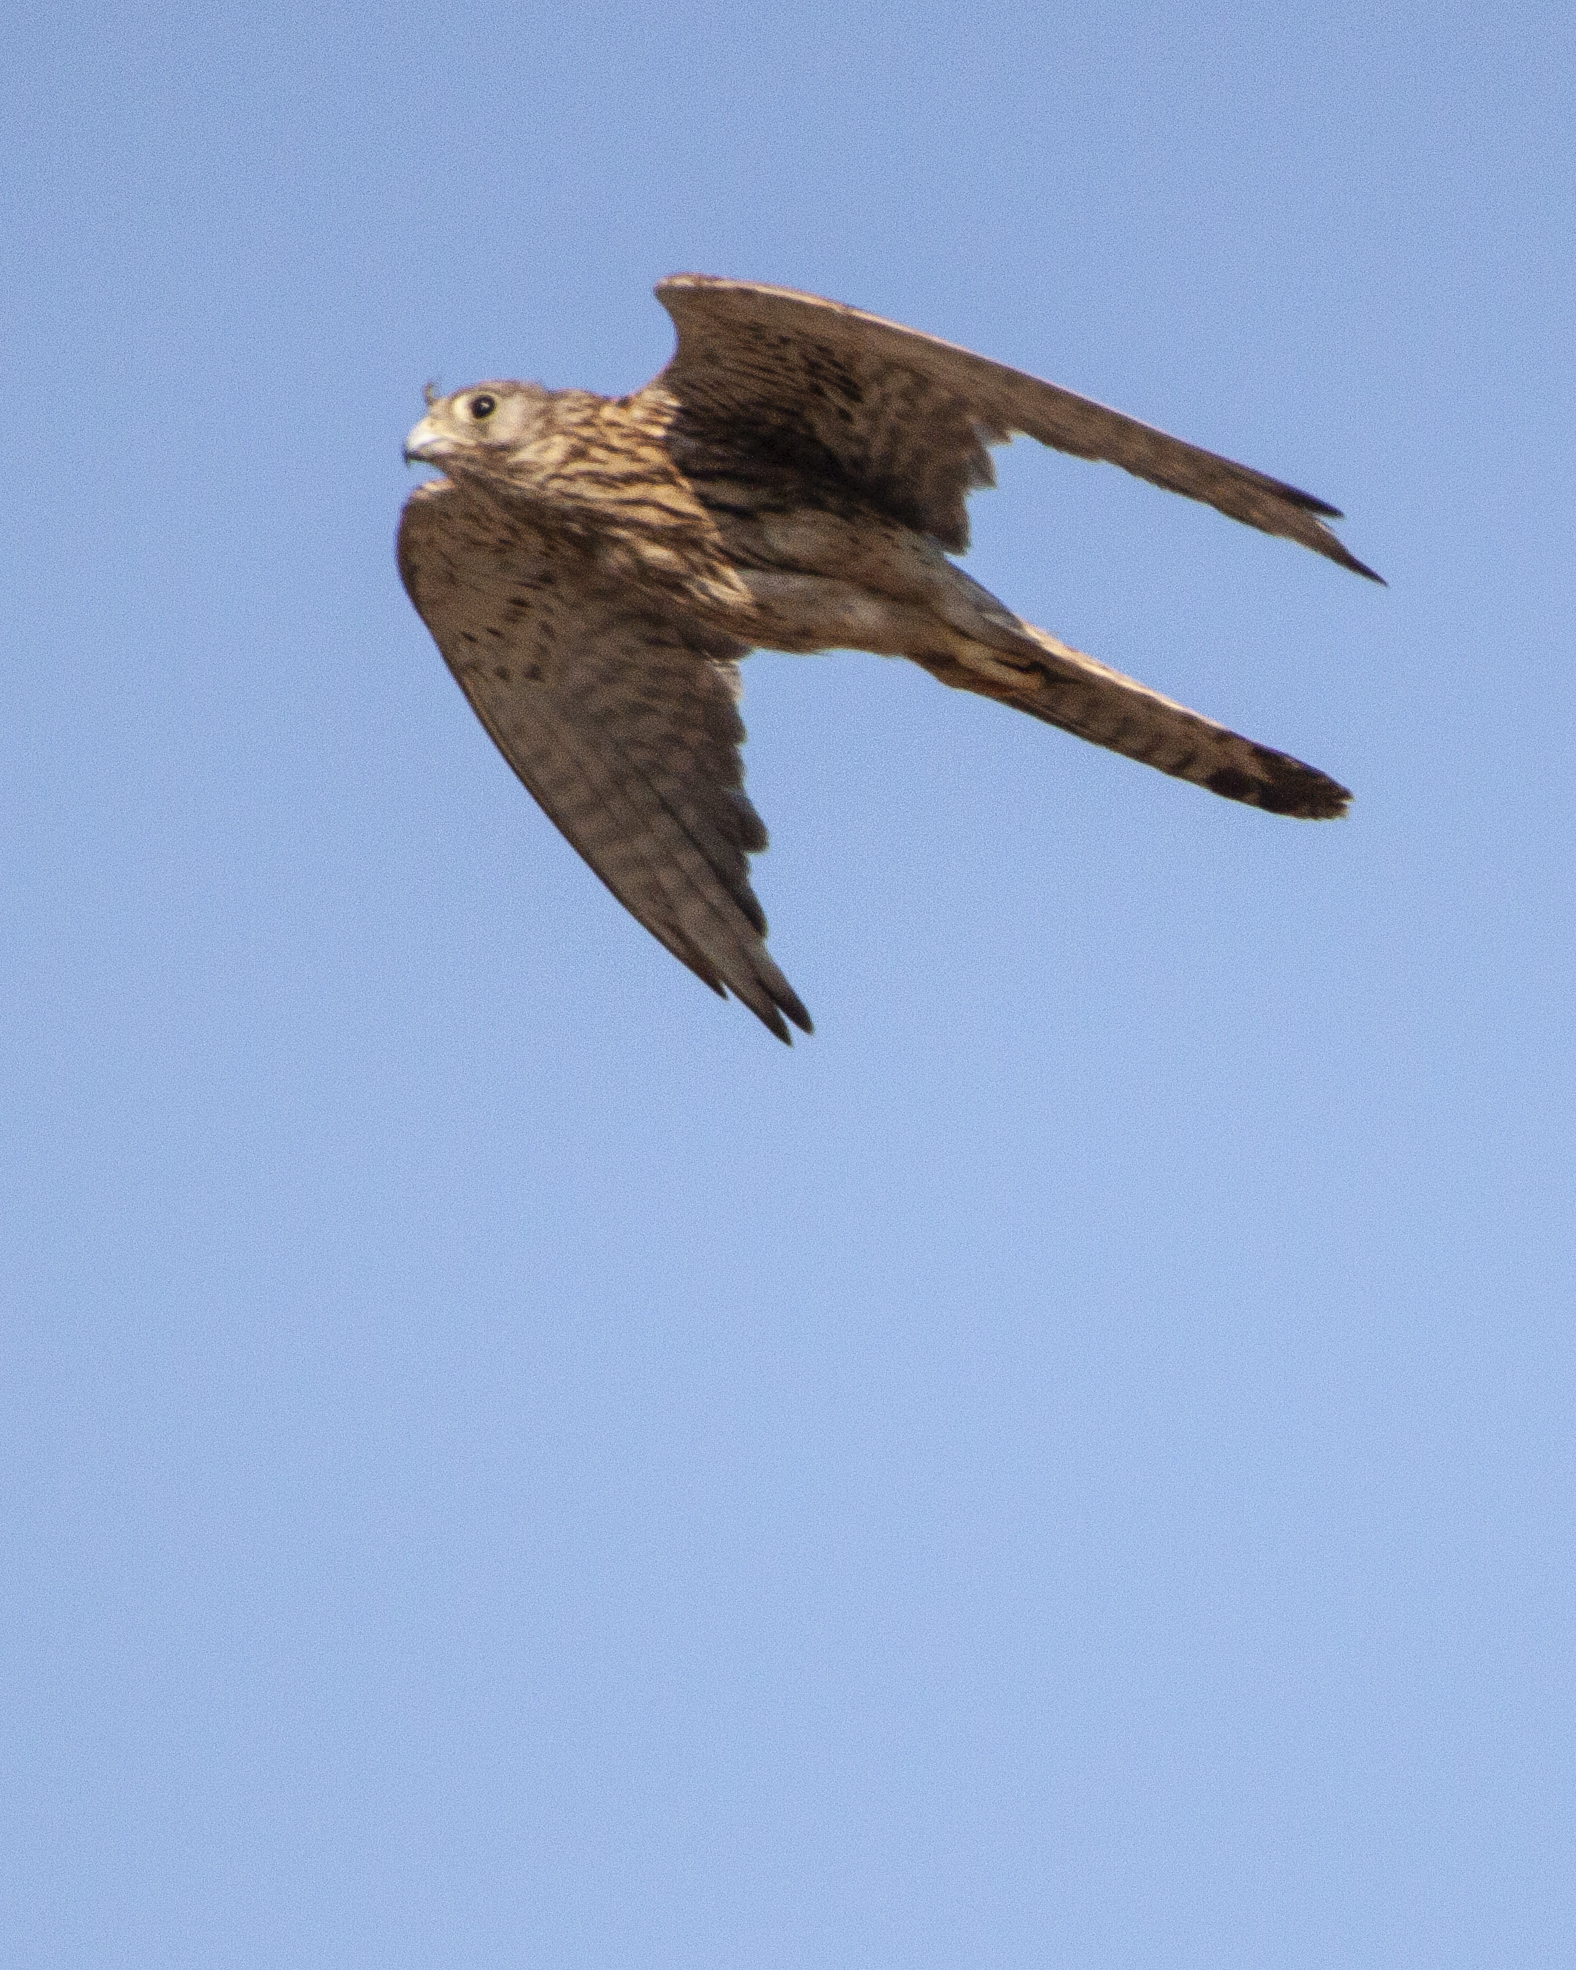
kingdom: Animalia
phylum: Chordata
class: Aves
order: Falconiformes
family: Falconidae
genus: Falco
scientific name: Falco tinnunculus
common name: Common kestrel
